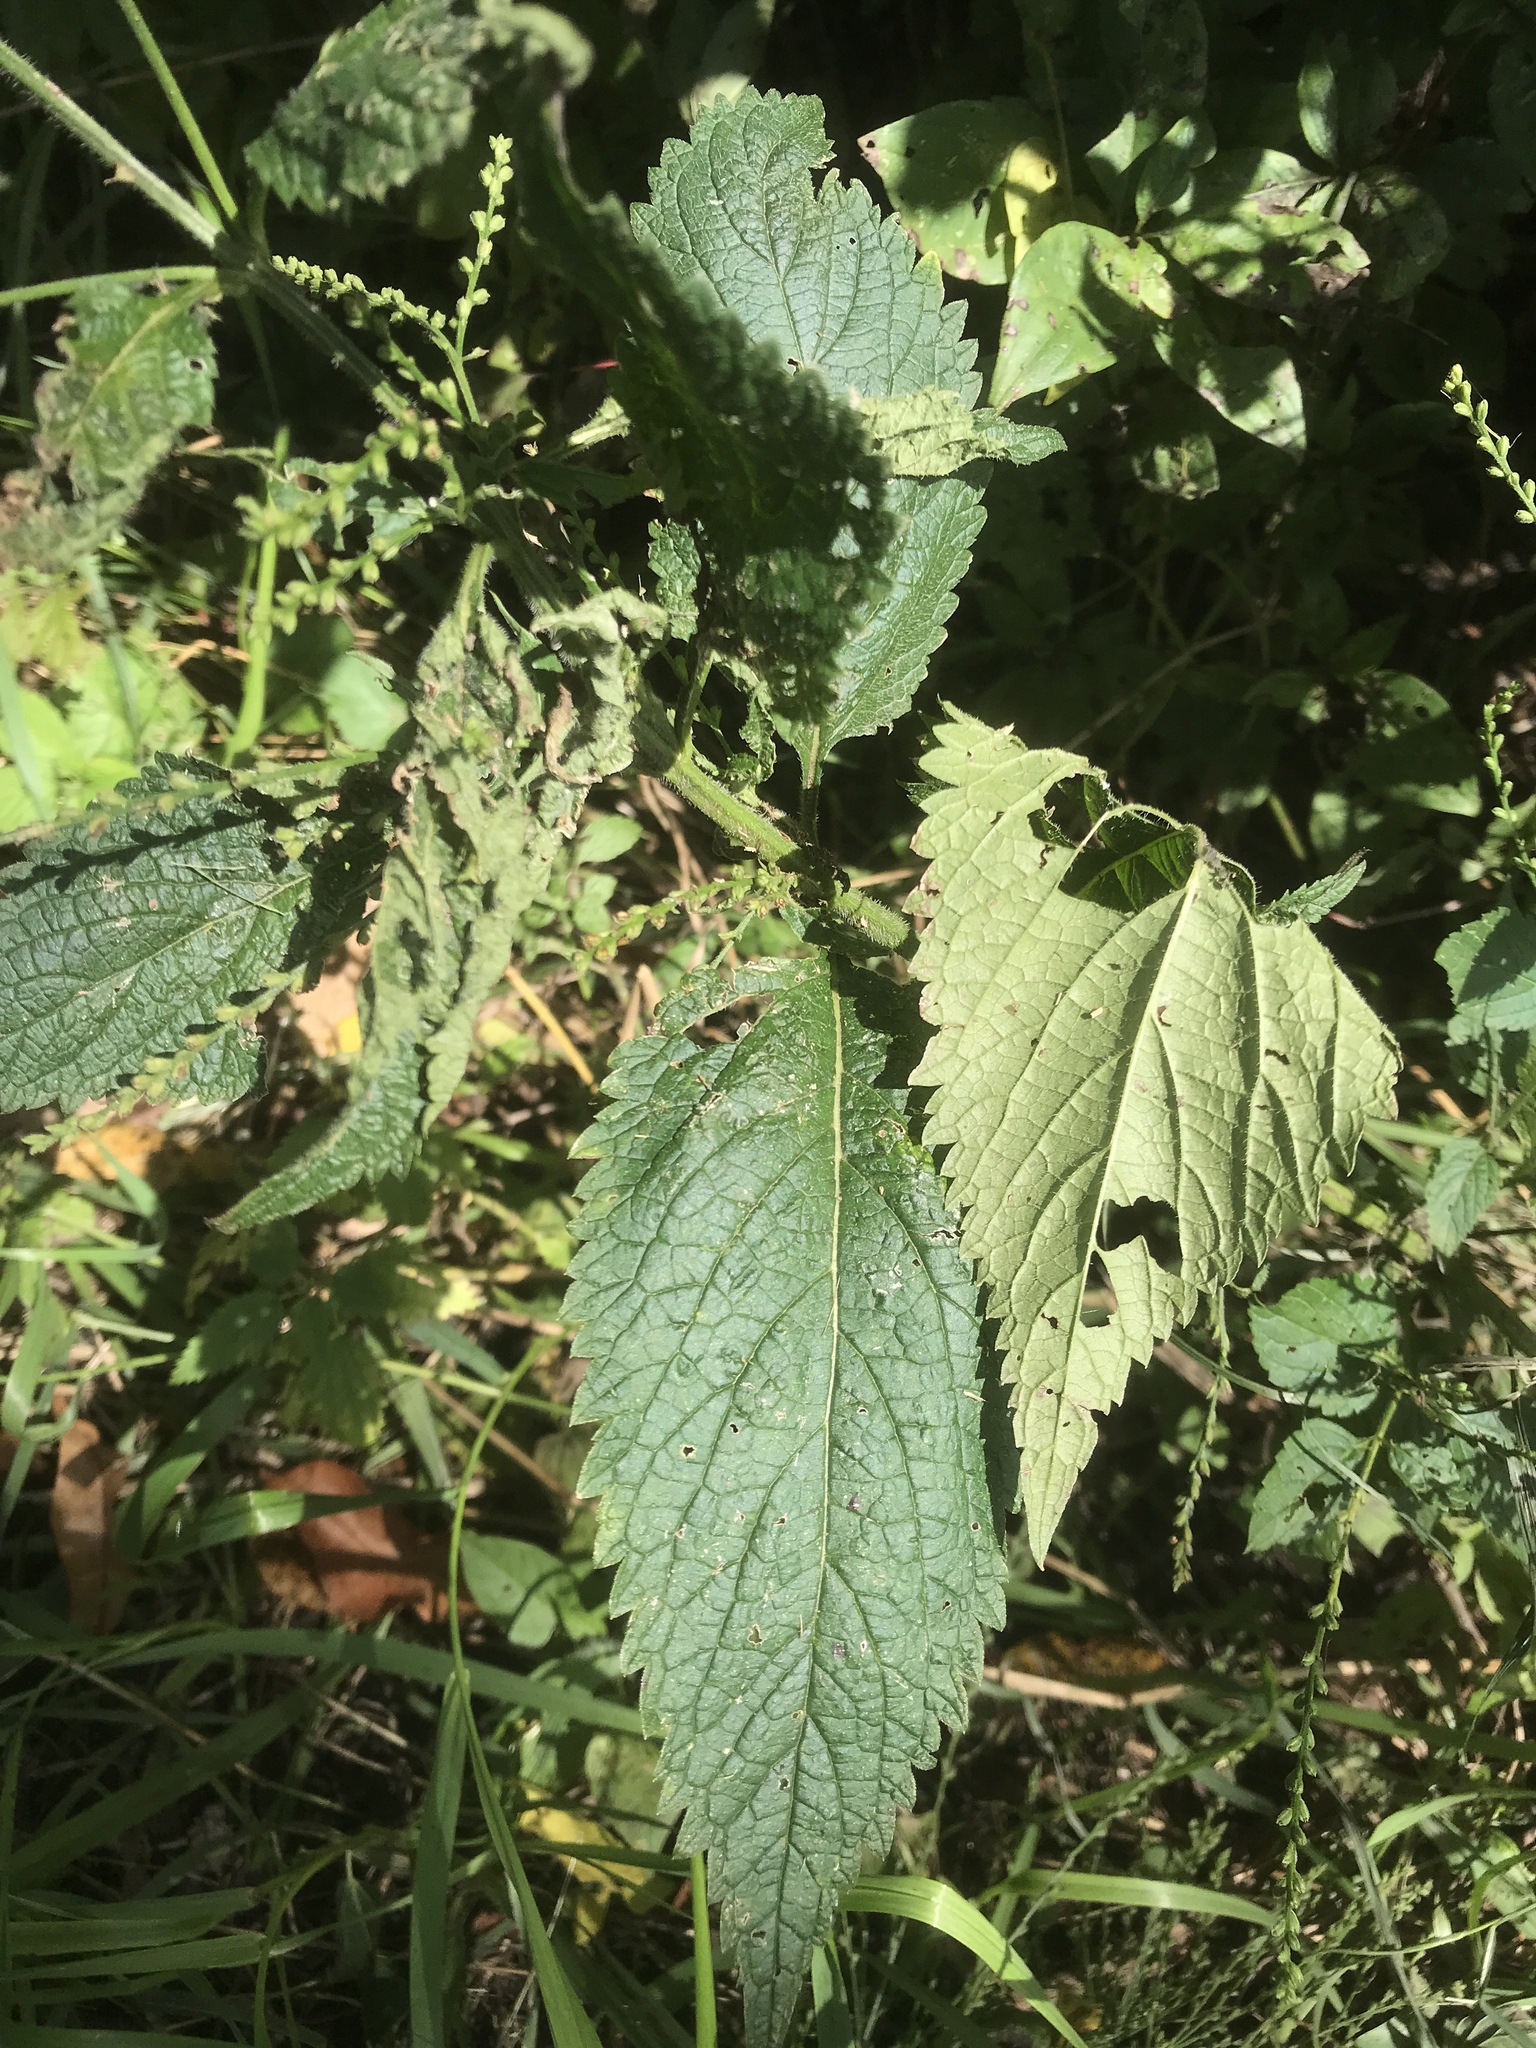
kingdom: Plantae
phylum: Tracheophyta
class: Magnoliopsida
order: Lamiales
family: Verbenaceae
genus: Verbena
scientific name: Verbena urticifolia
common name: Nettle-leaved vervain
